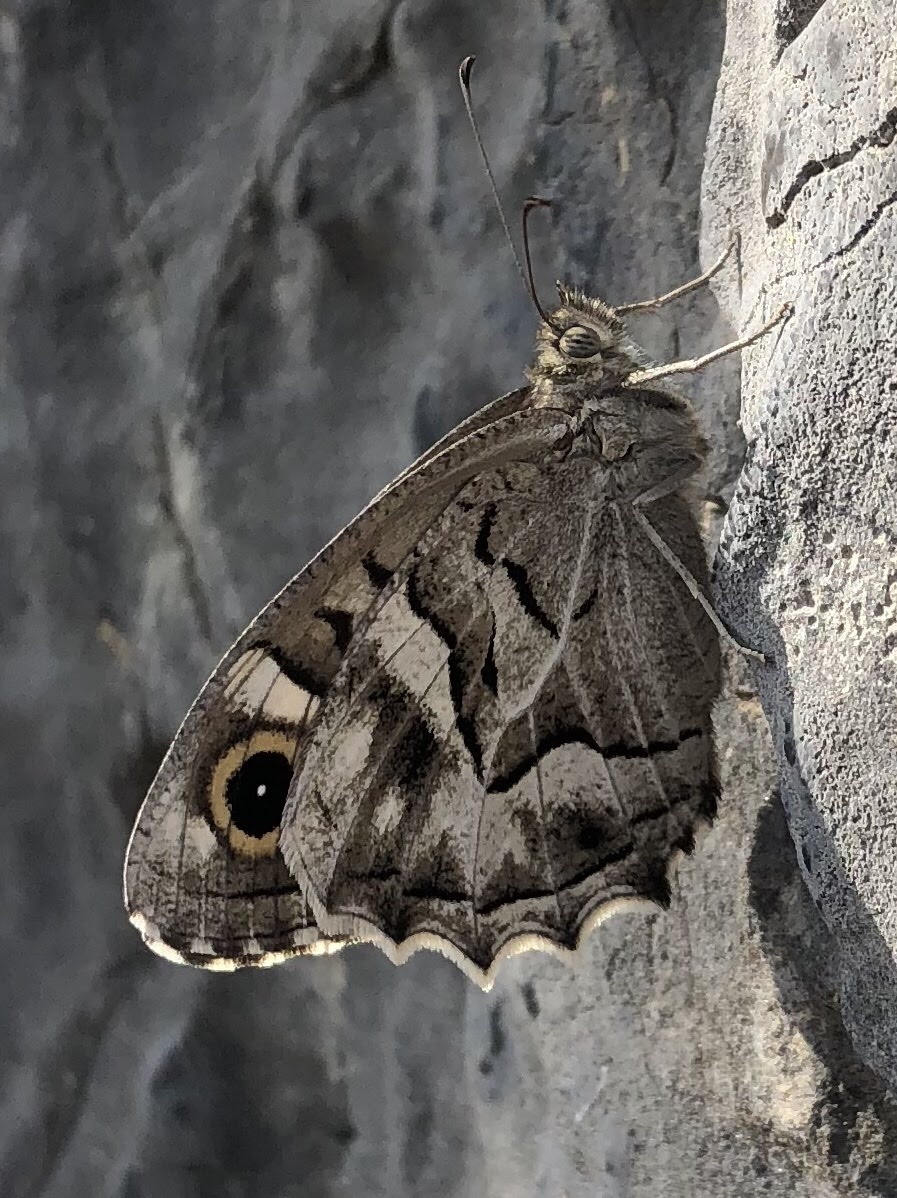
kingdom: Animalia
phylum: Arthropoda
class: Insecta
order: Lepidoptera
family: Nymphalidae
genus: Hipparchia
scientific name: Hipparchia fidia
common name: Striped grayling
